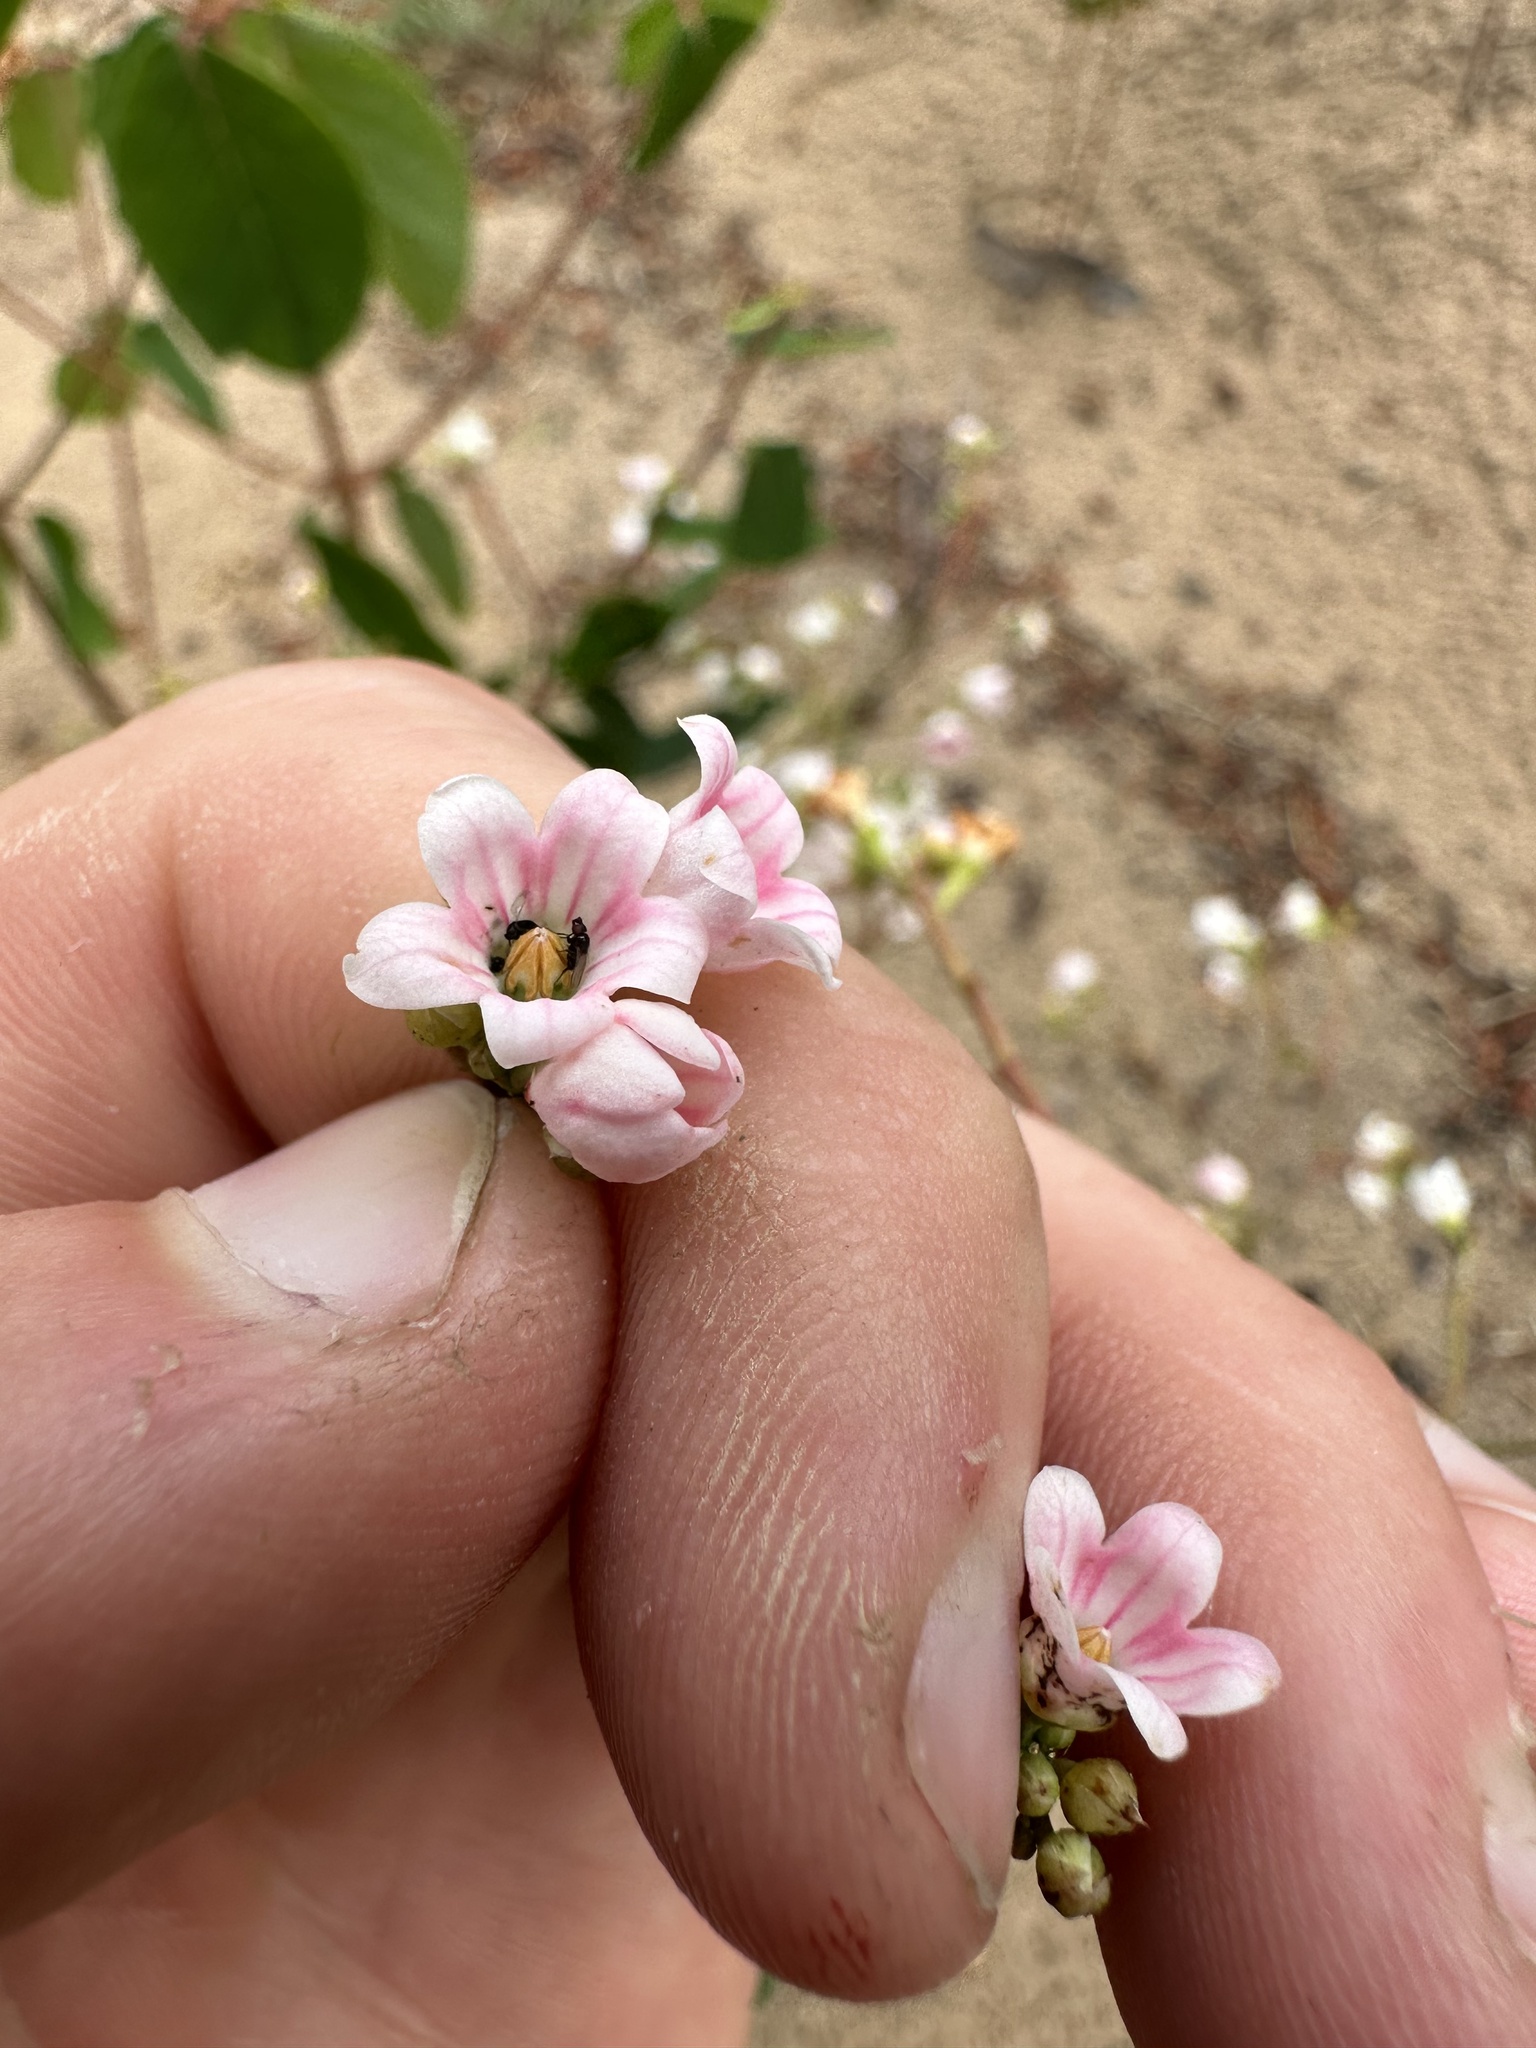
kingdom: Plantae
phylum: Tracheophyta
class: Magnoliopsida
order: Gentianales
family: Apocynaceae
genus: Apocynum
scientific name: Apocynum androsaemifolium
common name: Spreading dogbane
